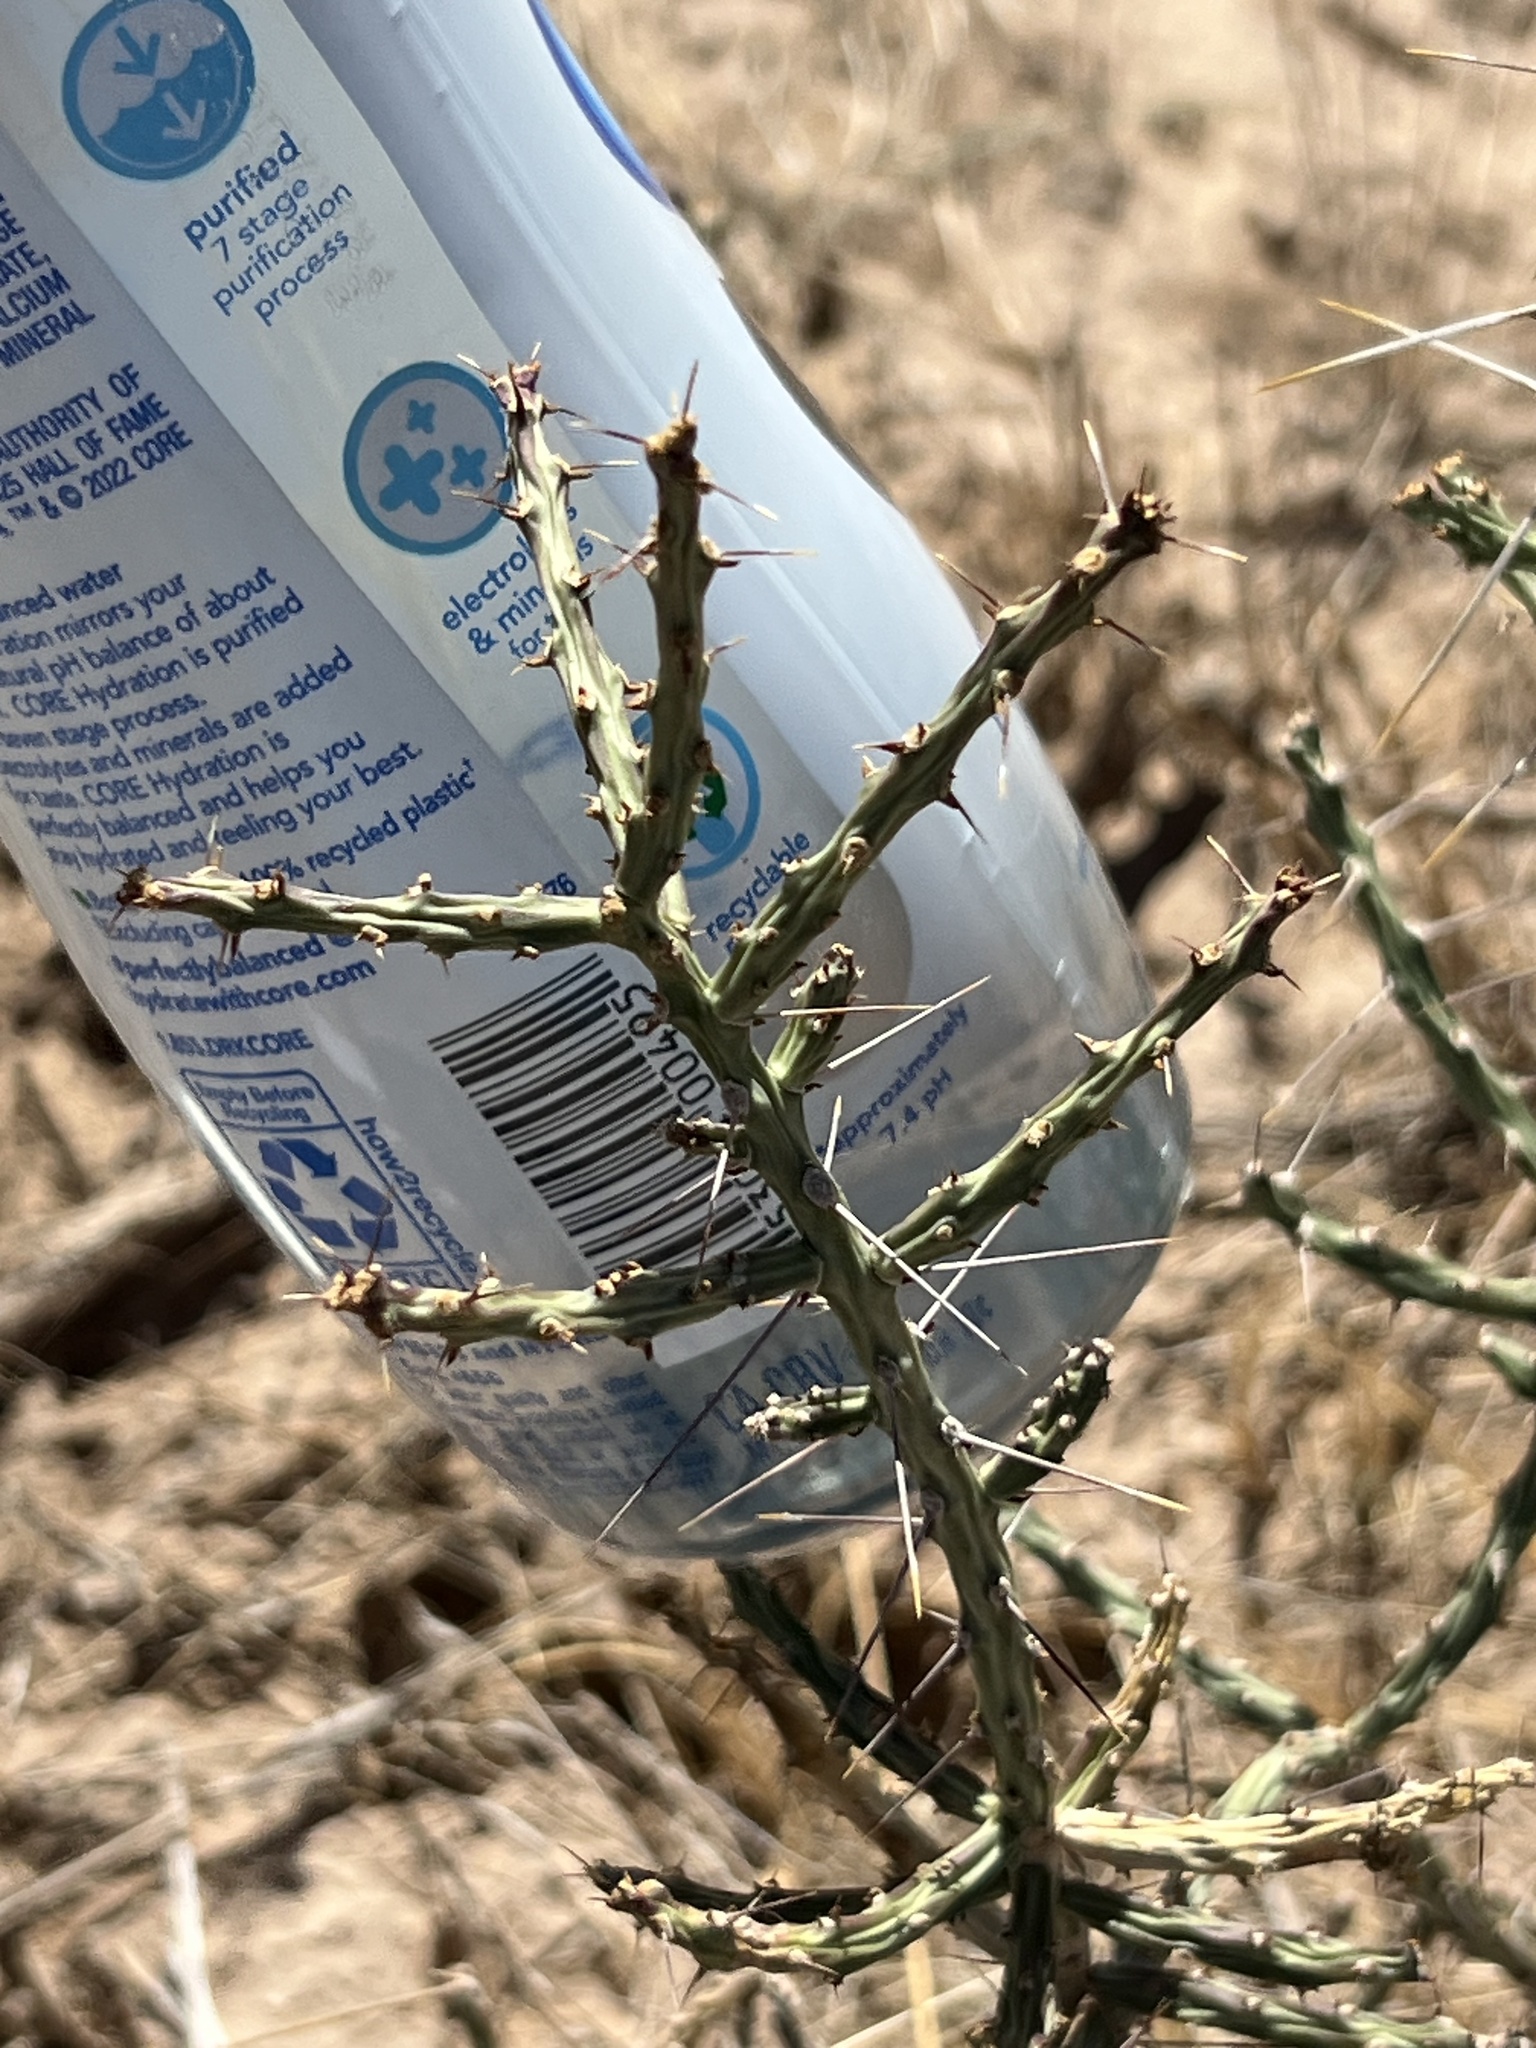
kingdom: Plantae
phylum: Tracheophyta
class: Magnoliopsida
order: Caryophyllales
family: Cactaceae
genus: Cylindropuntia
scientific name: Cylindropuntia leptocaulis
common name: Christmas cactus
